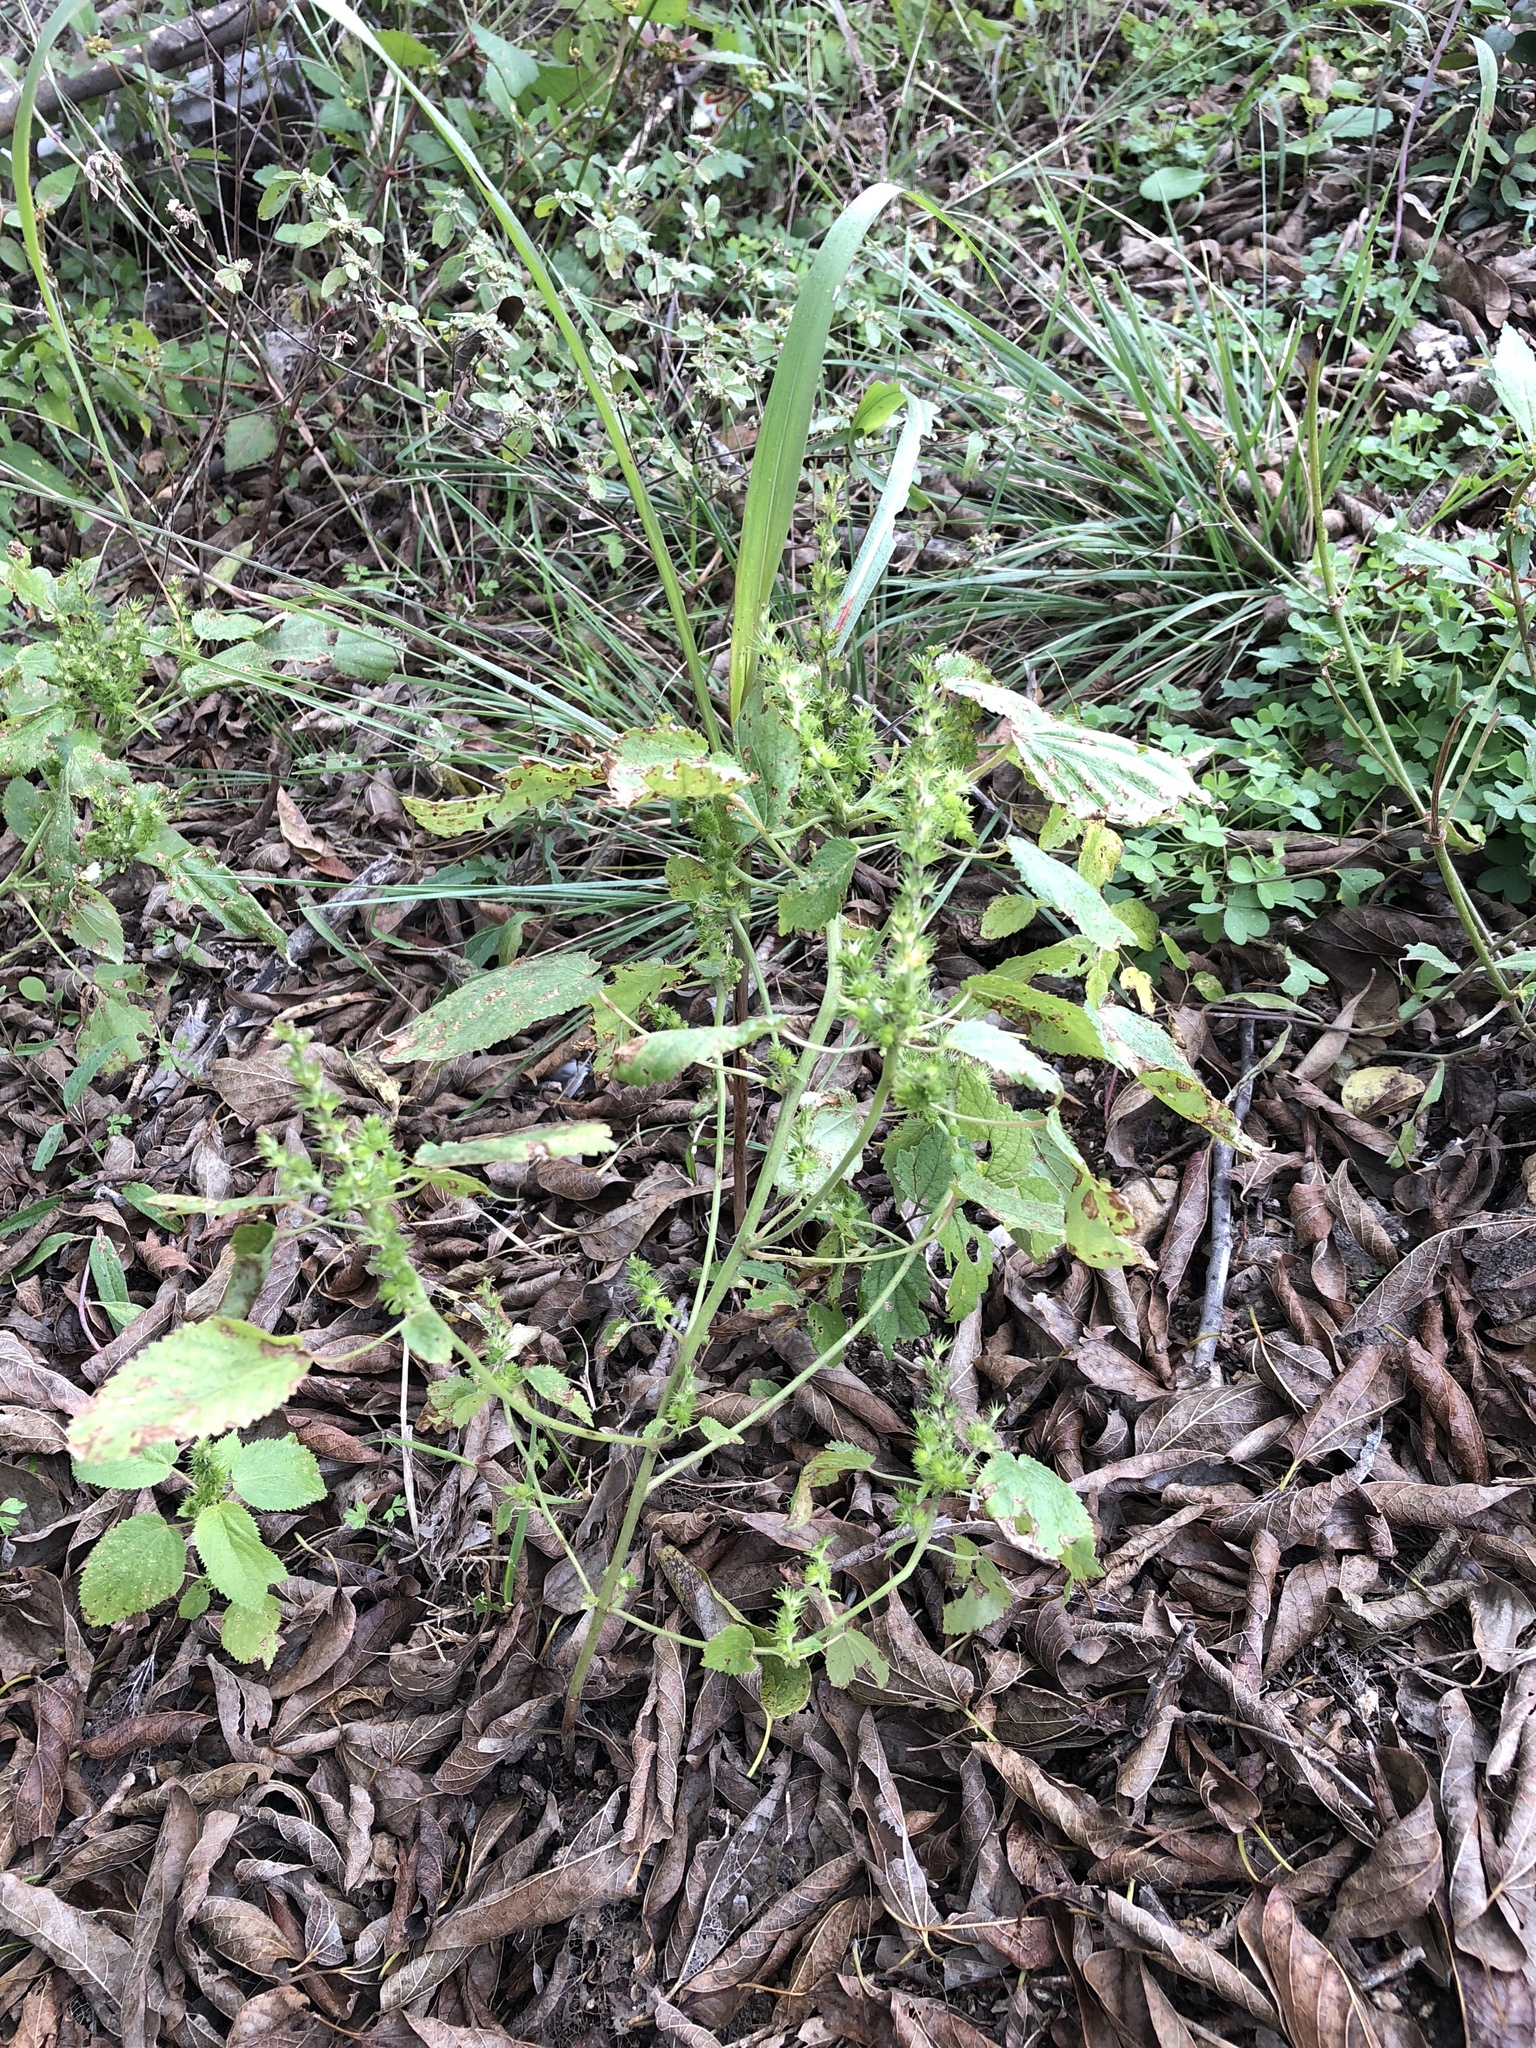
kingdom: Plantae
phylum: Tracheophyta
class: Magnoliopsida
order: Malpighiales
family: Euphorbiaceae
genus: Acalypha
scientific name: Acalypha ostryifolia
